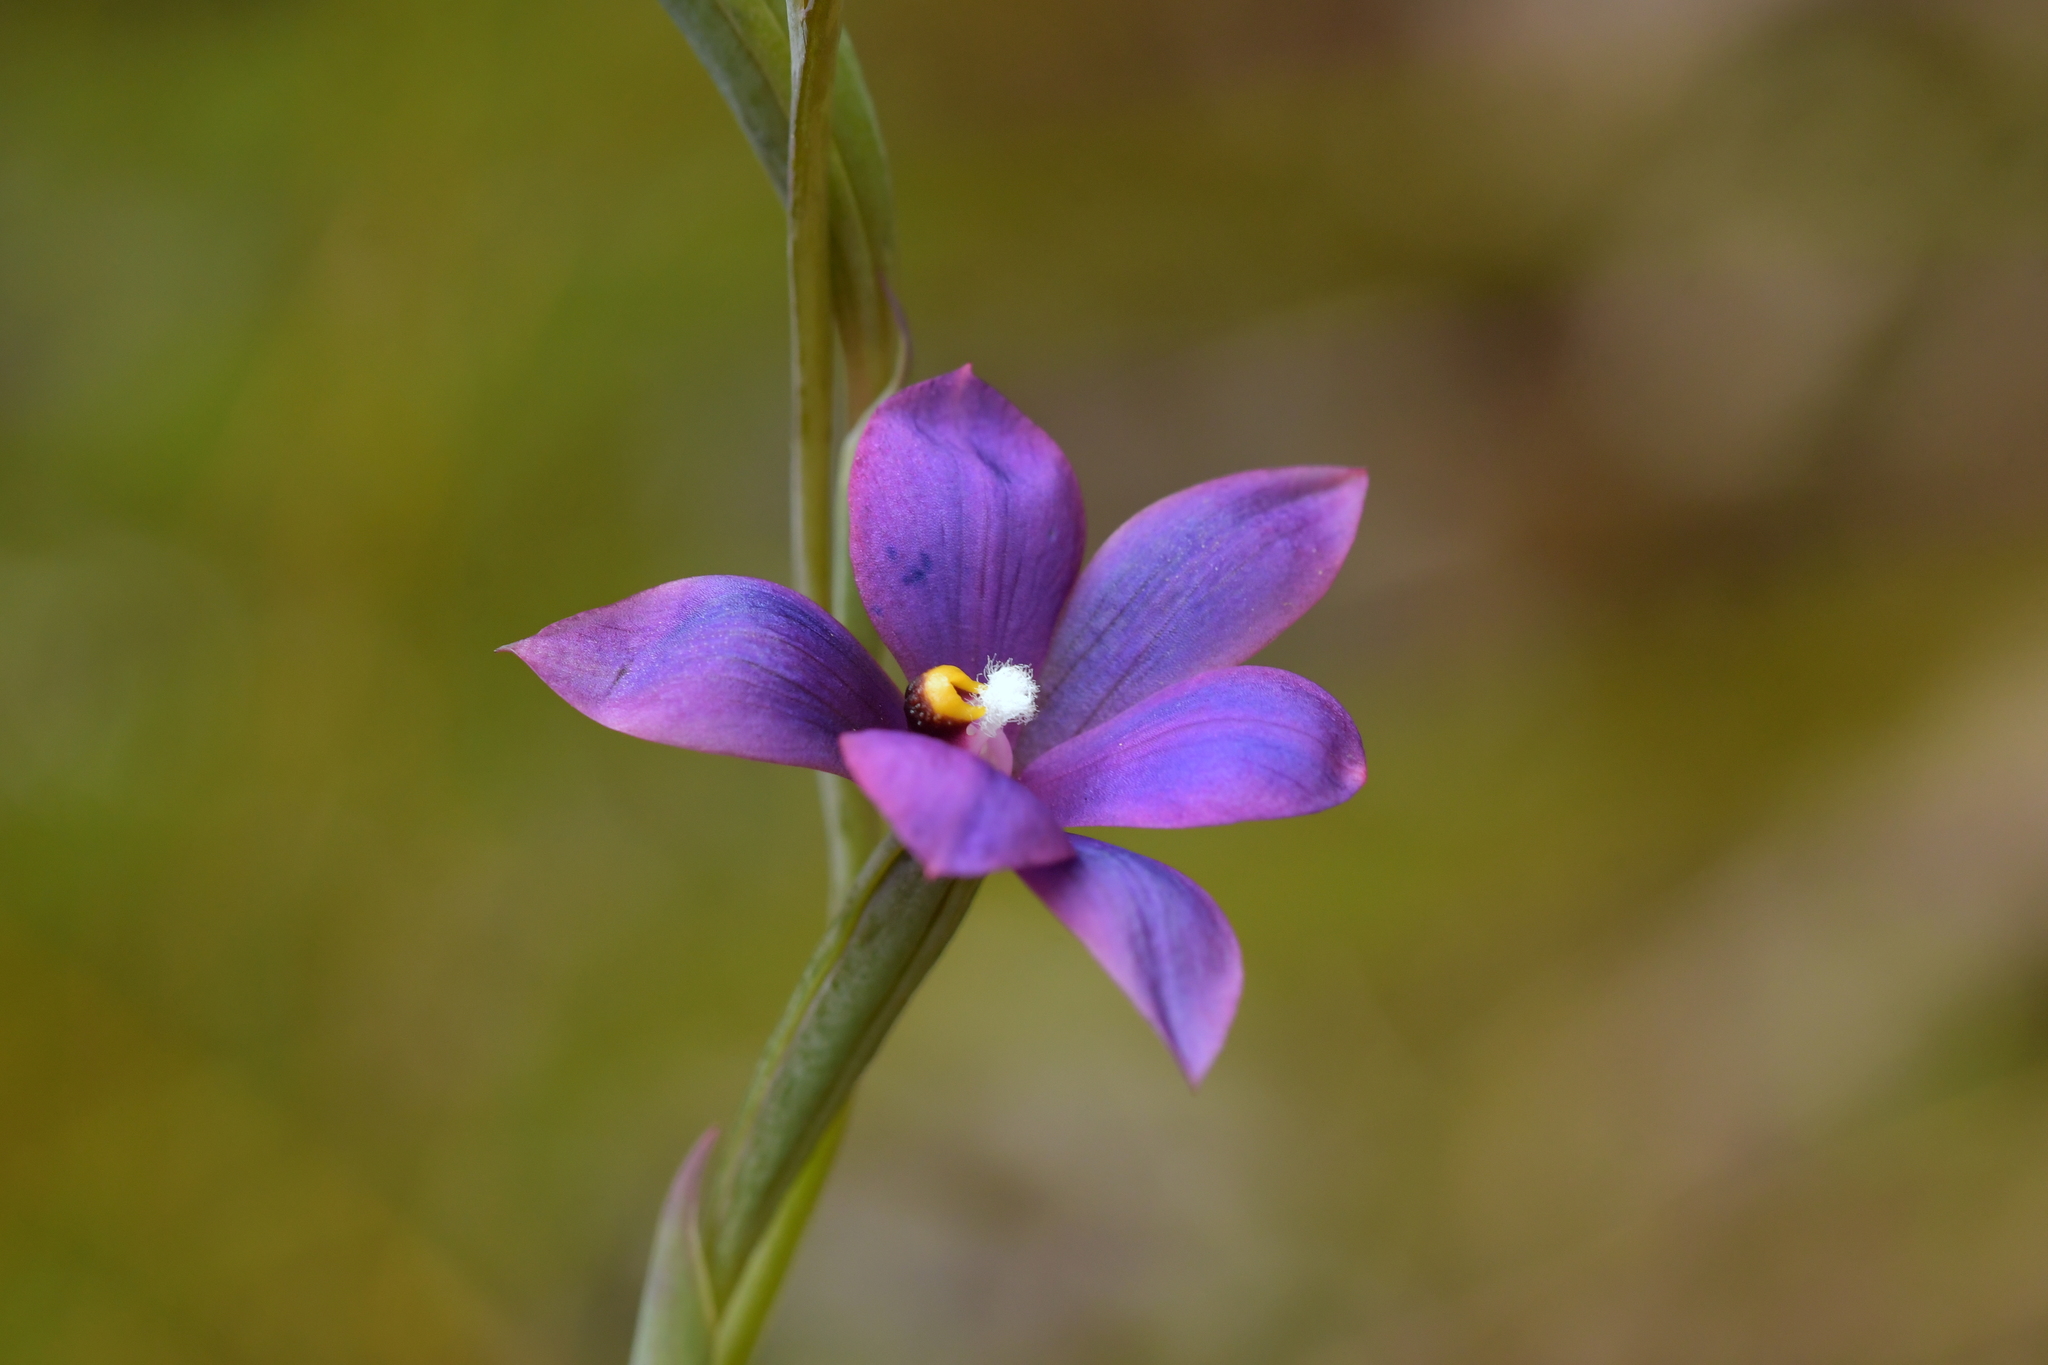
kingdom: Plantae
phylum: Tracheophyta
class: Liliopsida
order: Asparagales
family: Orchidaceae
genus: Thelymitra
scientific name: Thelymitra nervosa
